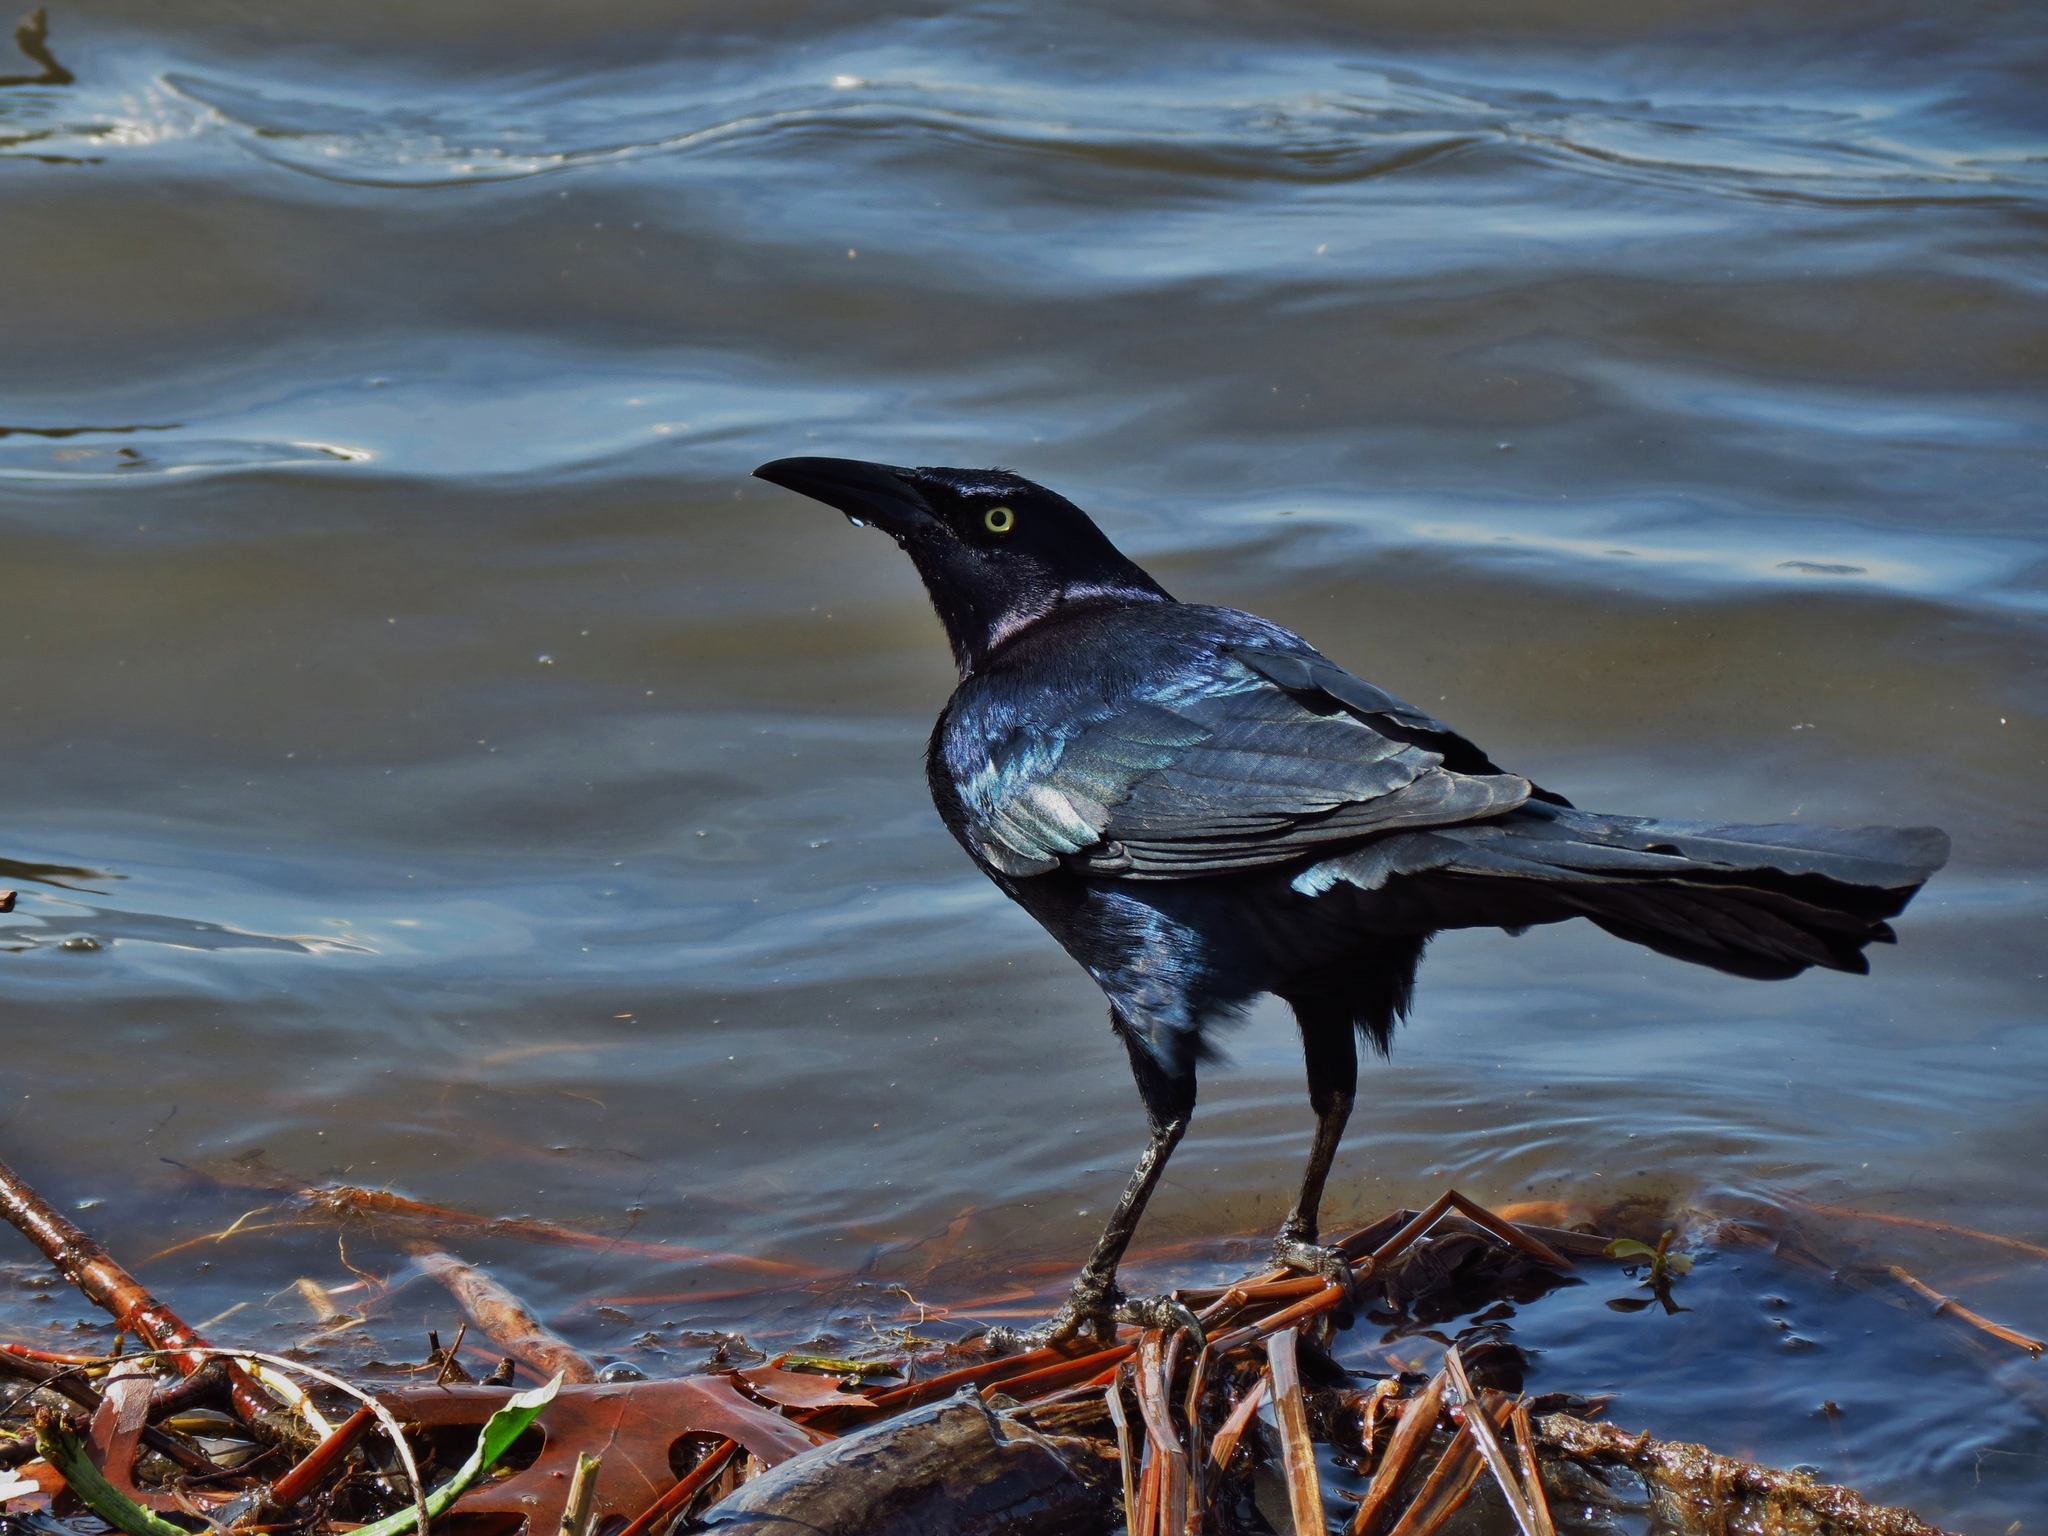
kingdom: Animalia
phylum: Chordata
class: Aves
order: Passeriformes
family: Icteridae
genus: Quiscalus
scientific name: Quiscalus mexicanus
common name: Great-tailed grackle
